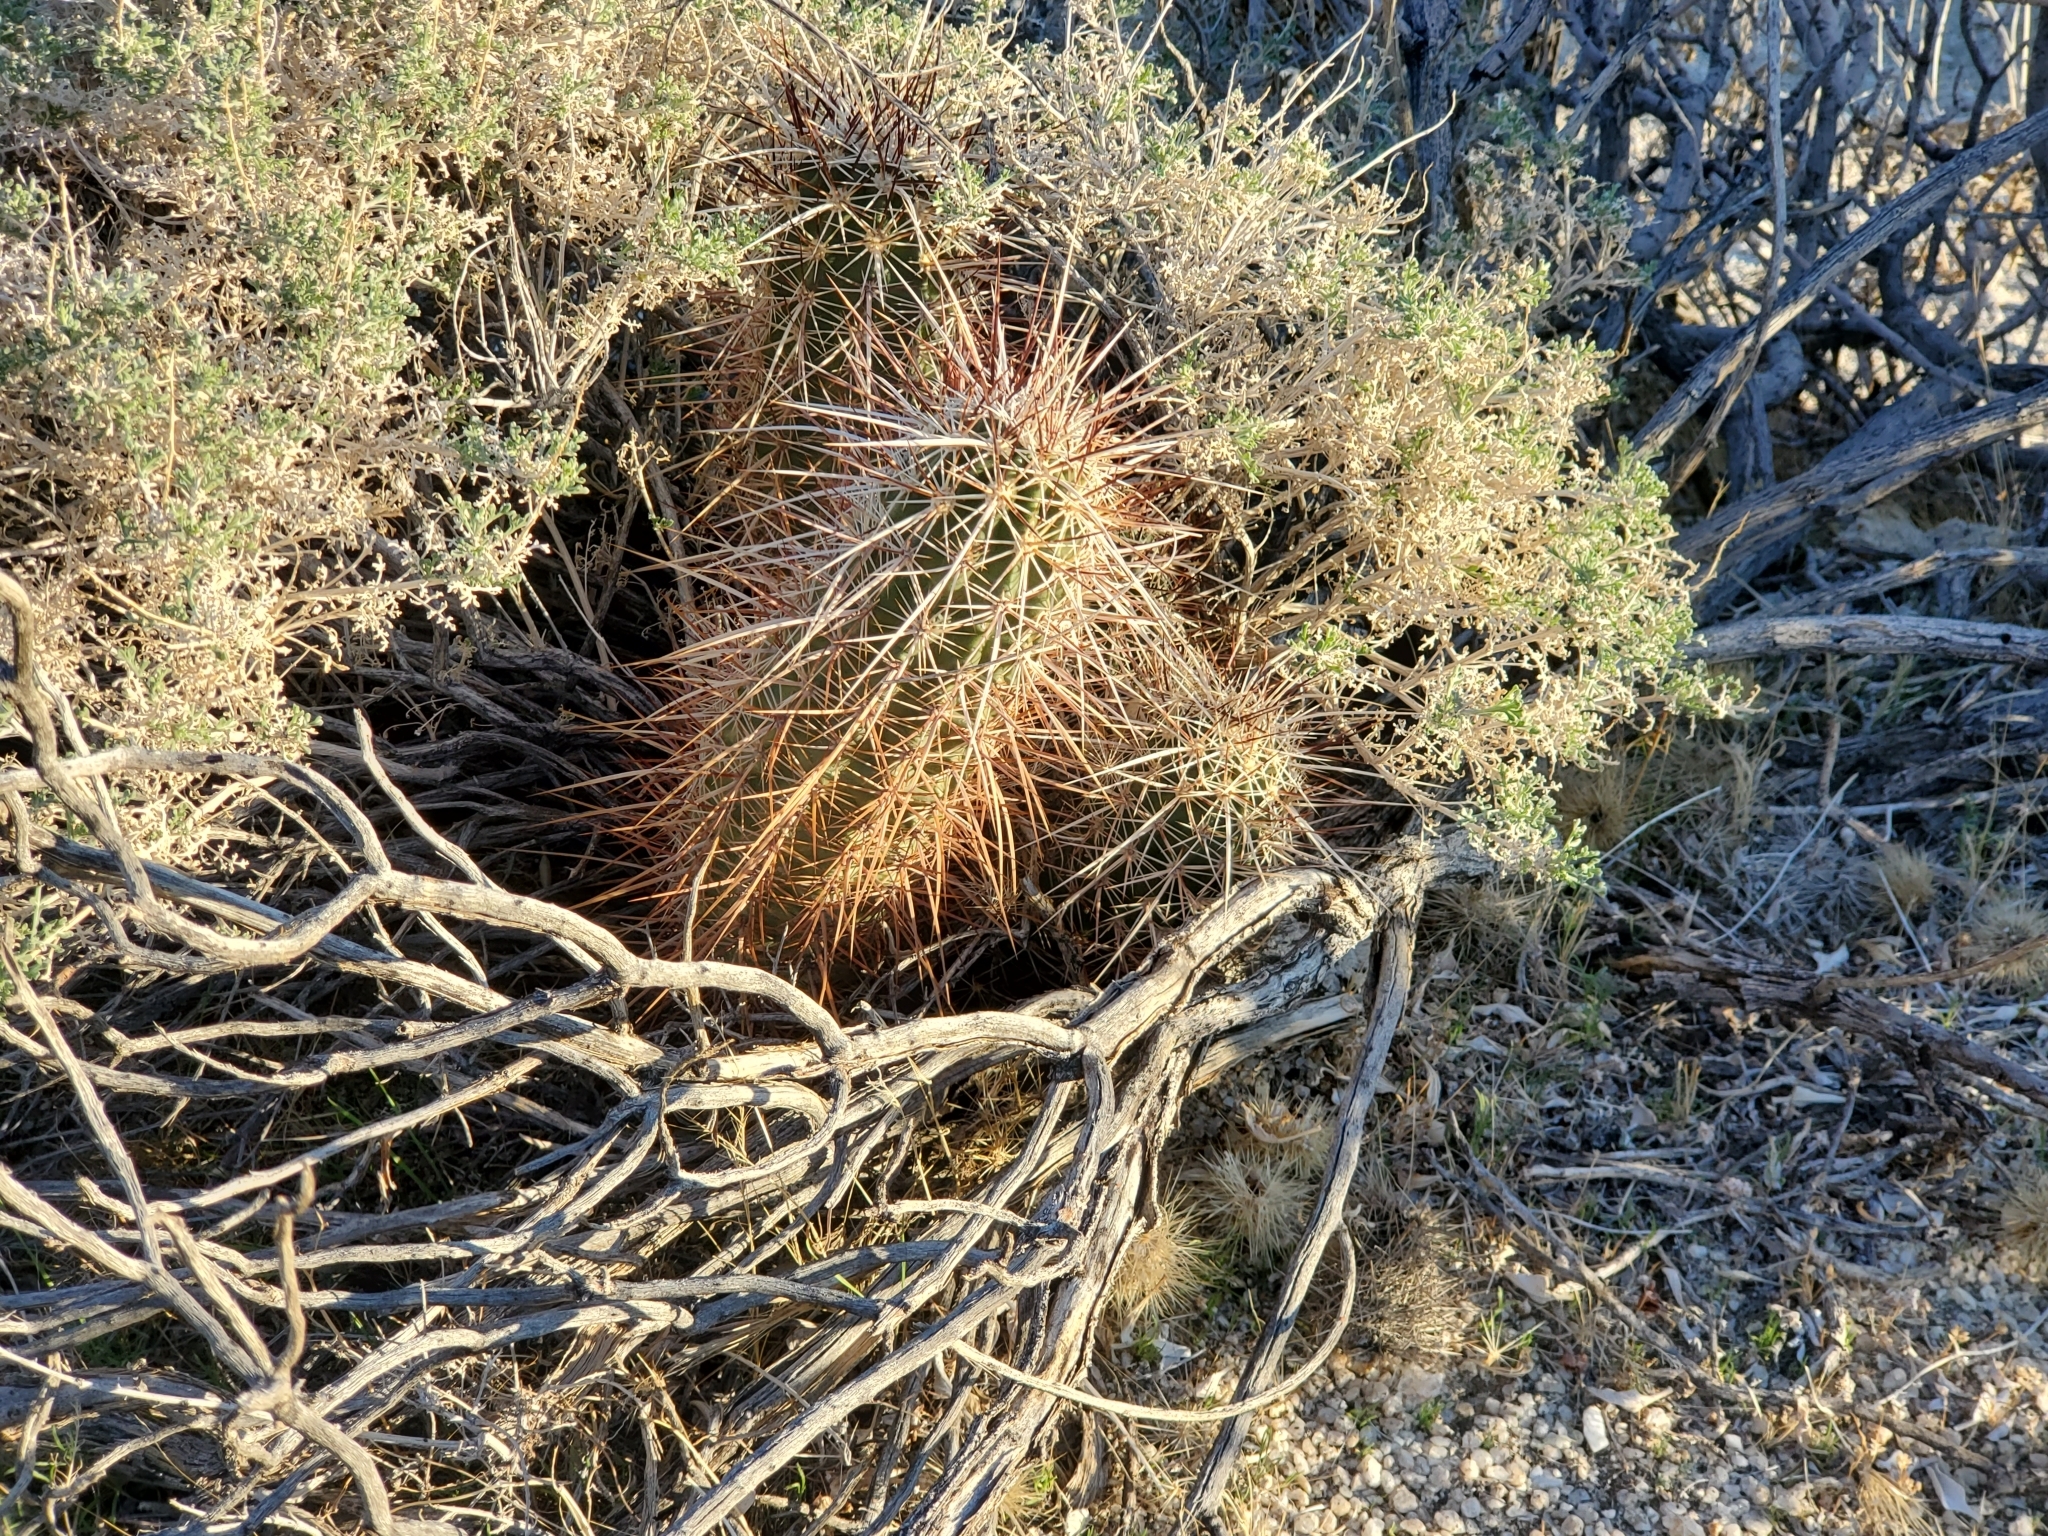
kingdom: Plantae
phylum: Tracheophyta
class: Magnoliopsida
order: Caryophyllales
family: Cactaceae
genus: Echinocereus
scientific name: Echinocereus engelmannii
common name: Engelmann's hedgehog cactus
